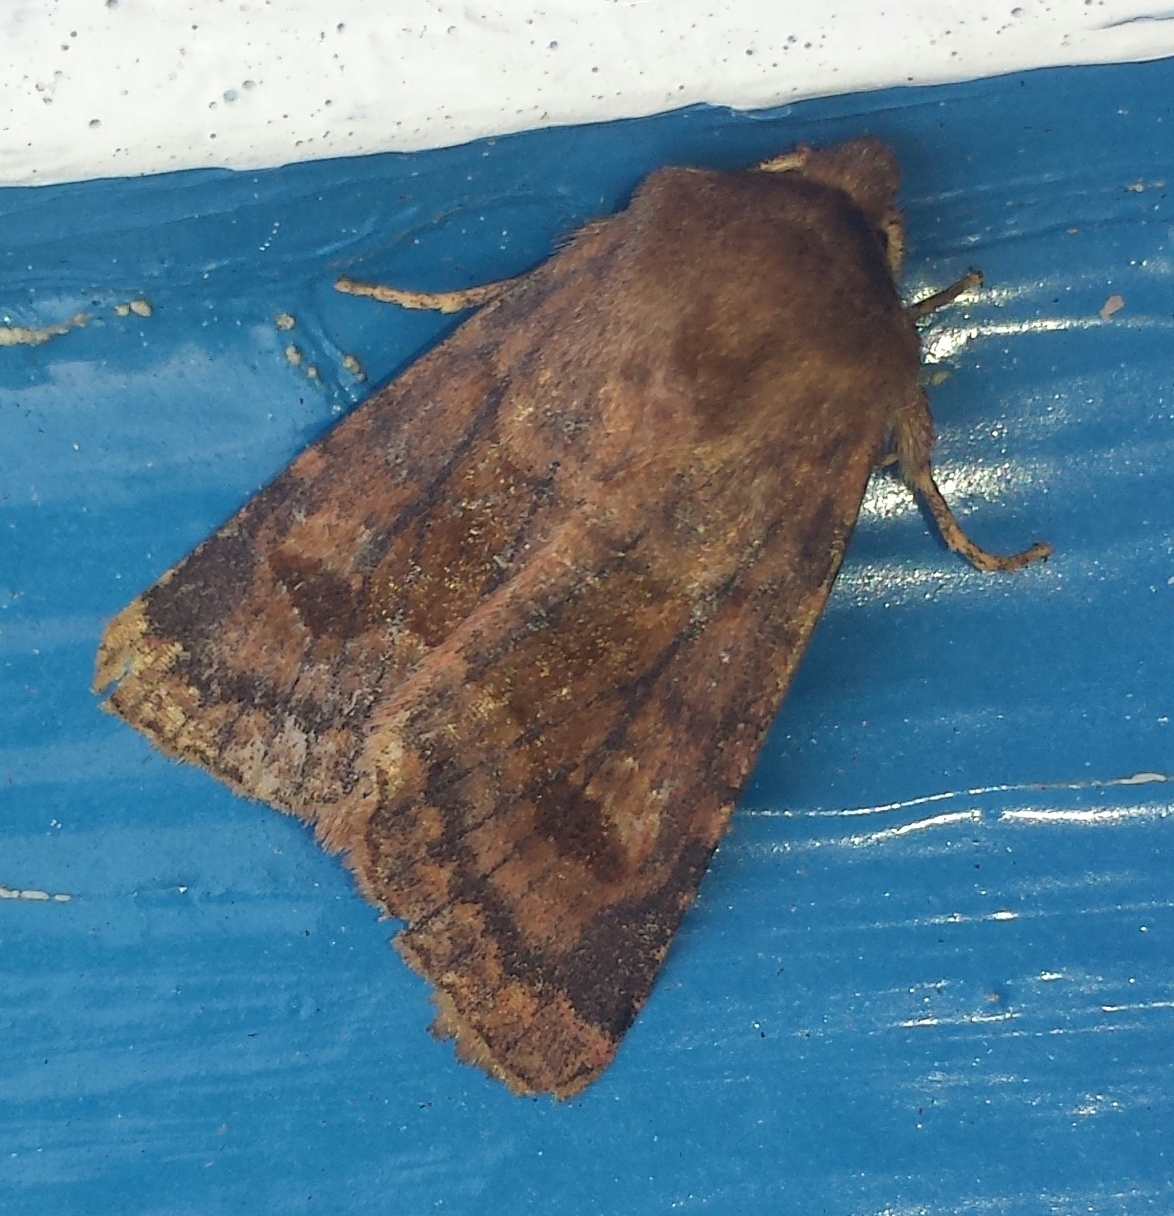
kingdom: Animalia
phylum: Arthropoda
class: Insecta
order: Lepidoptera
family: Noctuidae
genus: Nephelodes
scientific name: Nephelodes minians
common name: Bronzed cutworm
